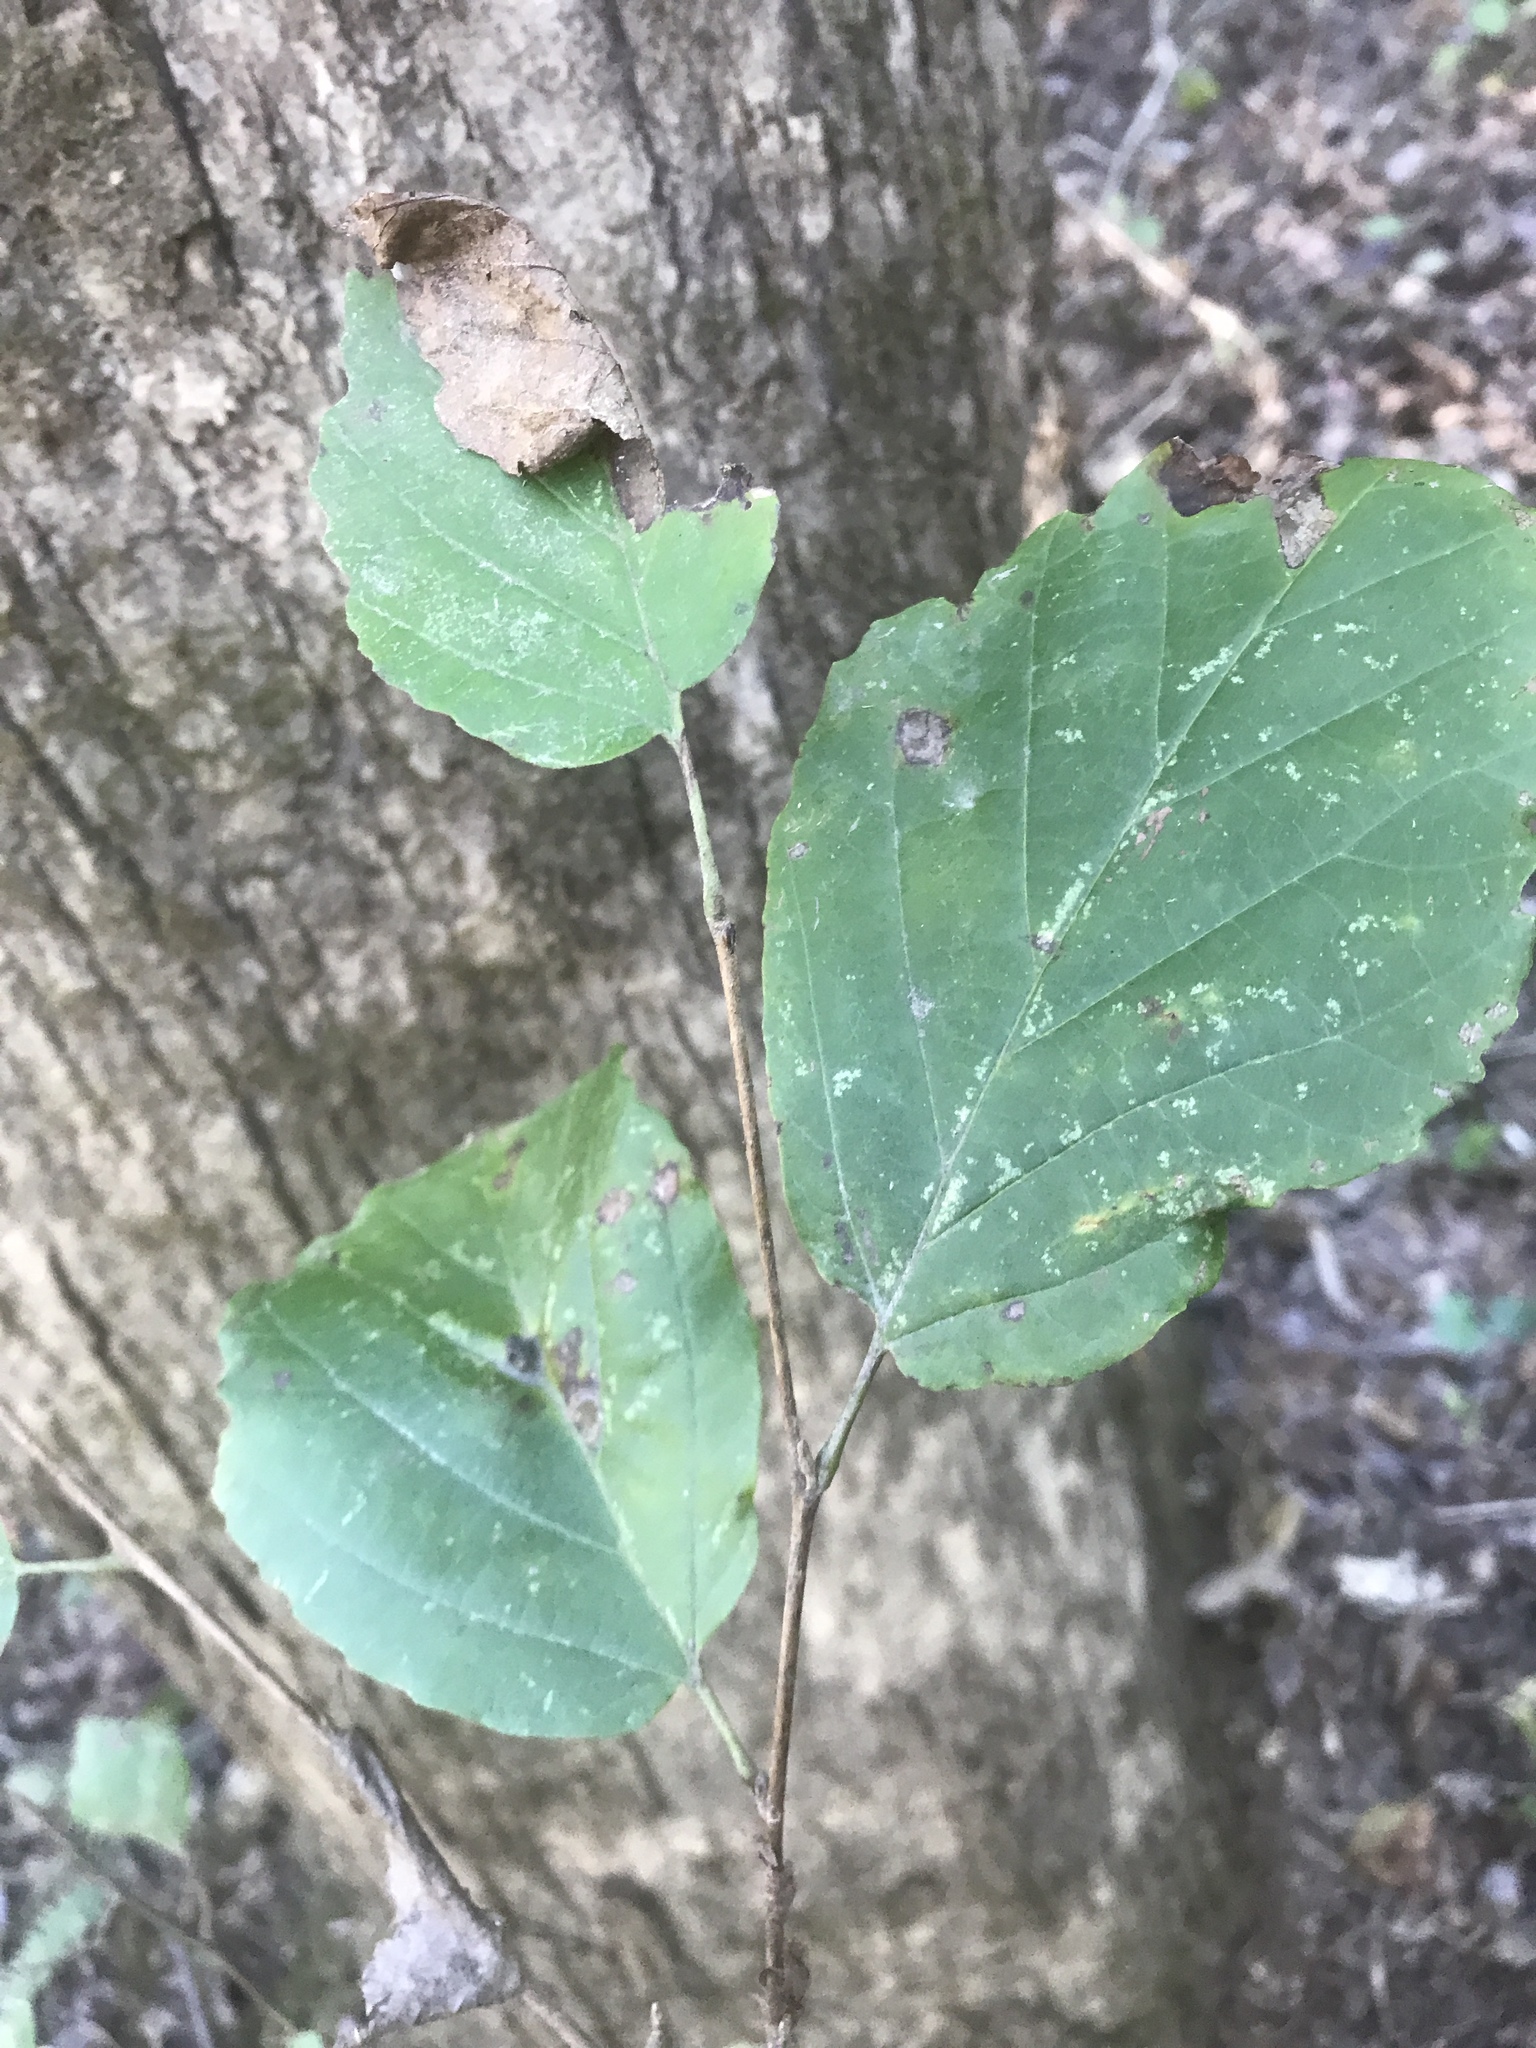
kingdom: Plantae
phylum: Tracheophyta
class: Magnoliopsida
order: Saxifragales
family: Hamamelidaceae
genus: Hamamelis
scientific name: Hamamelis virginiana
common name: Witch-hazel
